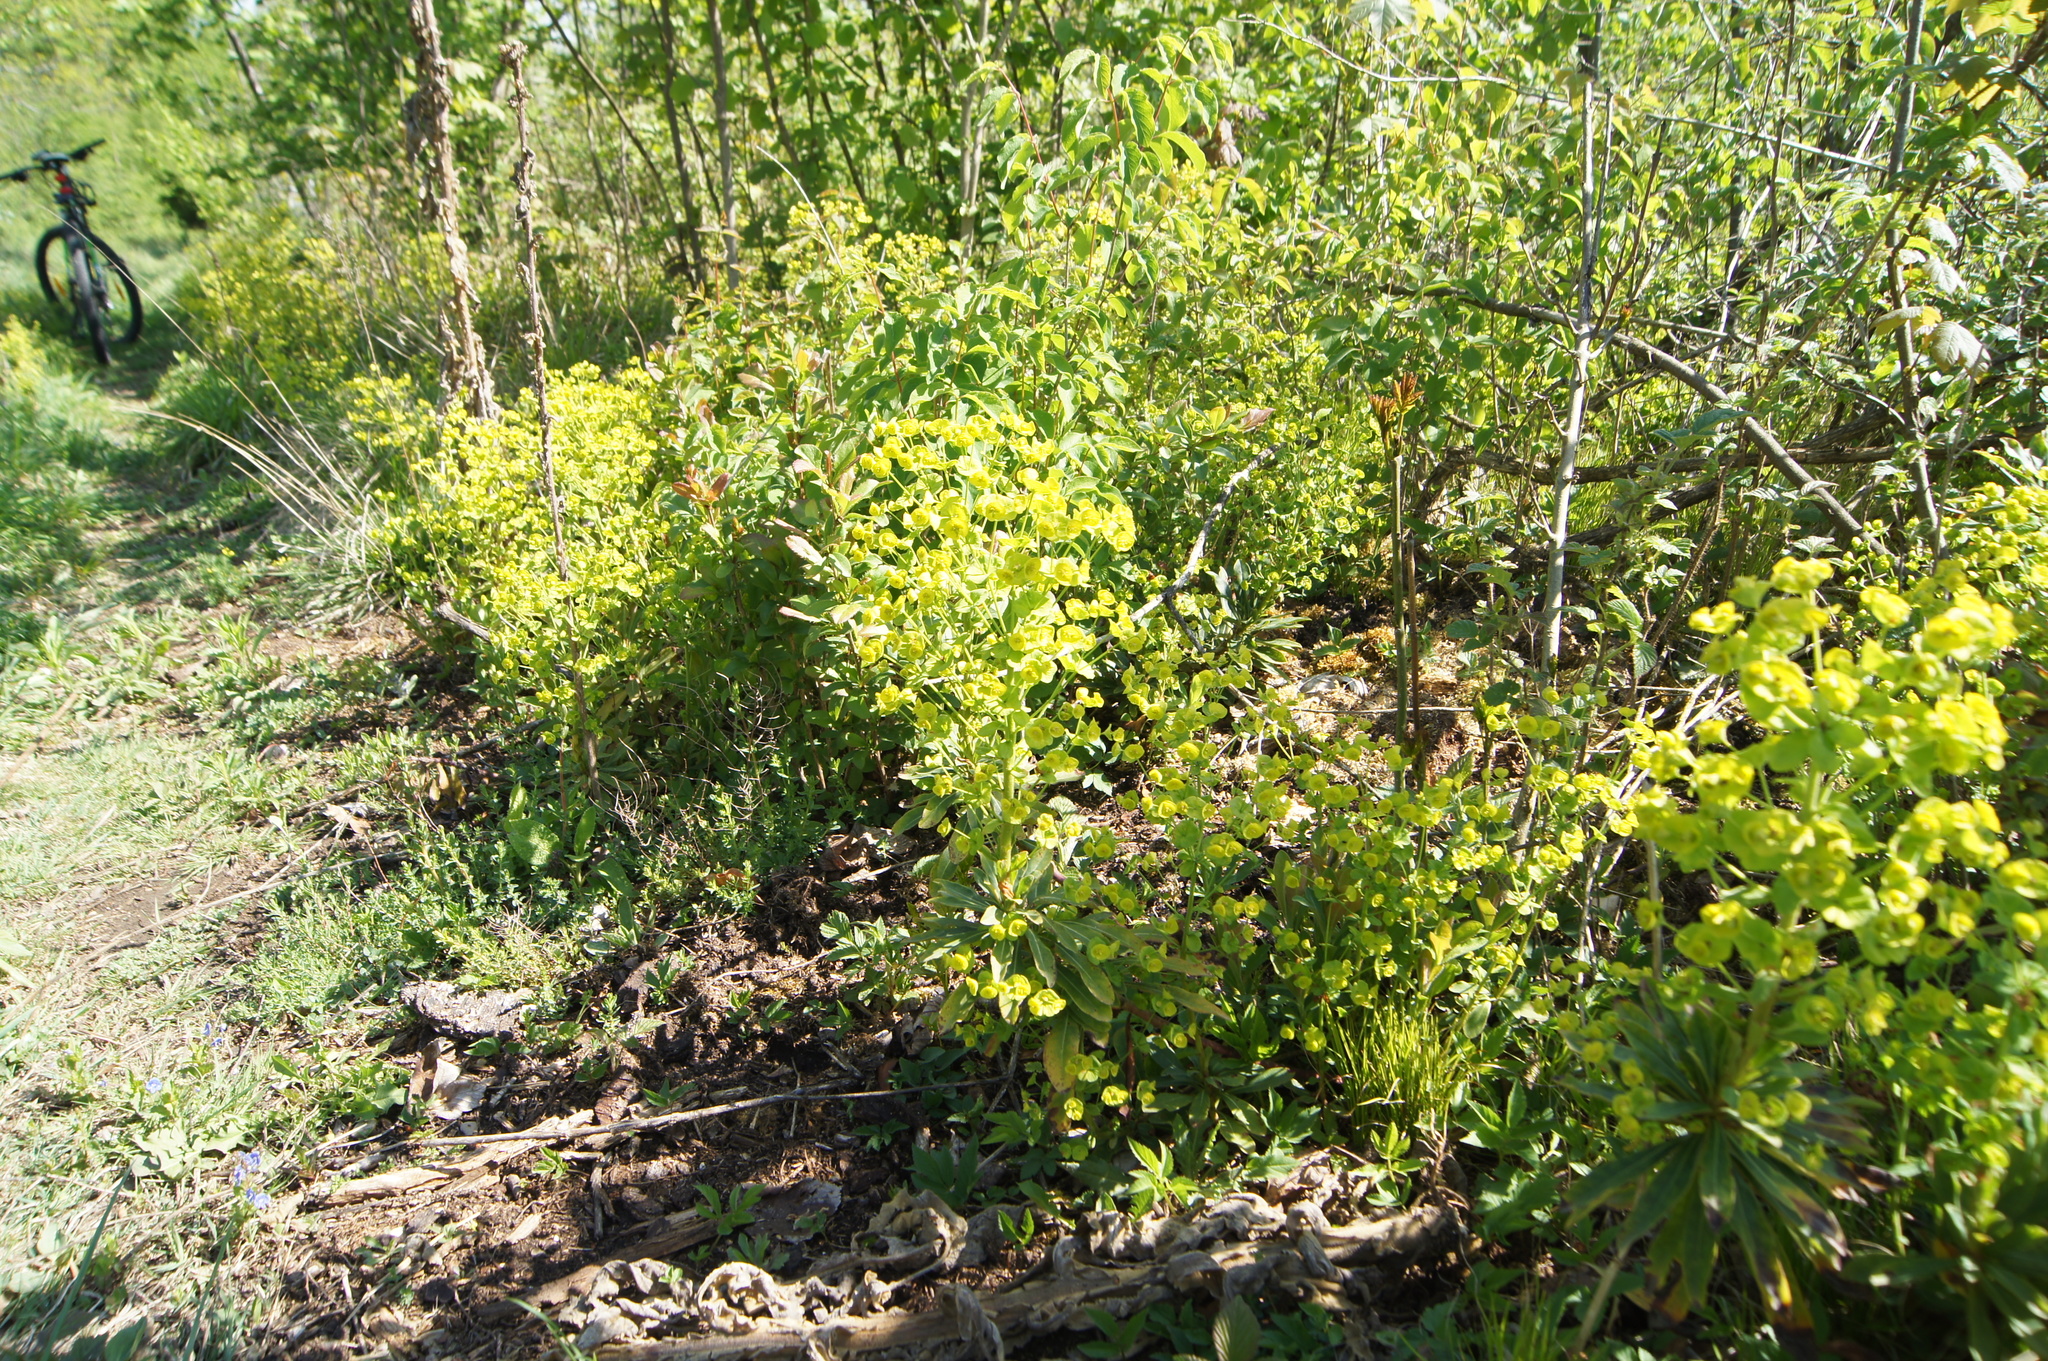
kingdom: Plantae
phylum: Tracheophyta
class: Magnoliopsida
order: Malpighiales
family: Euphorbiaceae
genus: Euphorbia
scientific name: Euphorbia amygdaloides
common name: Wood spurge
